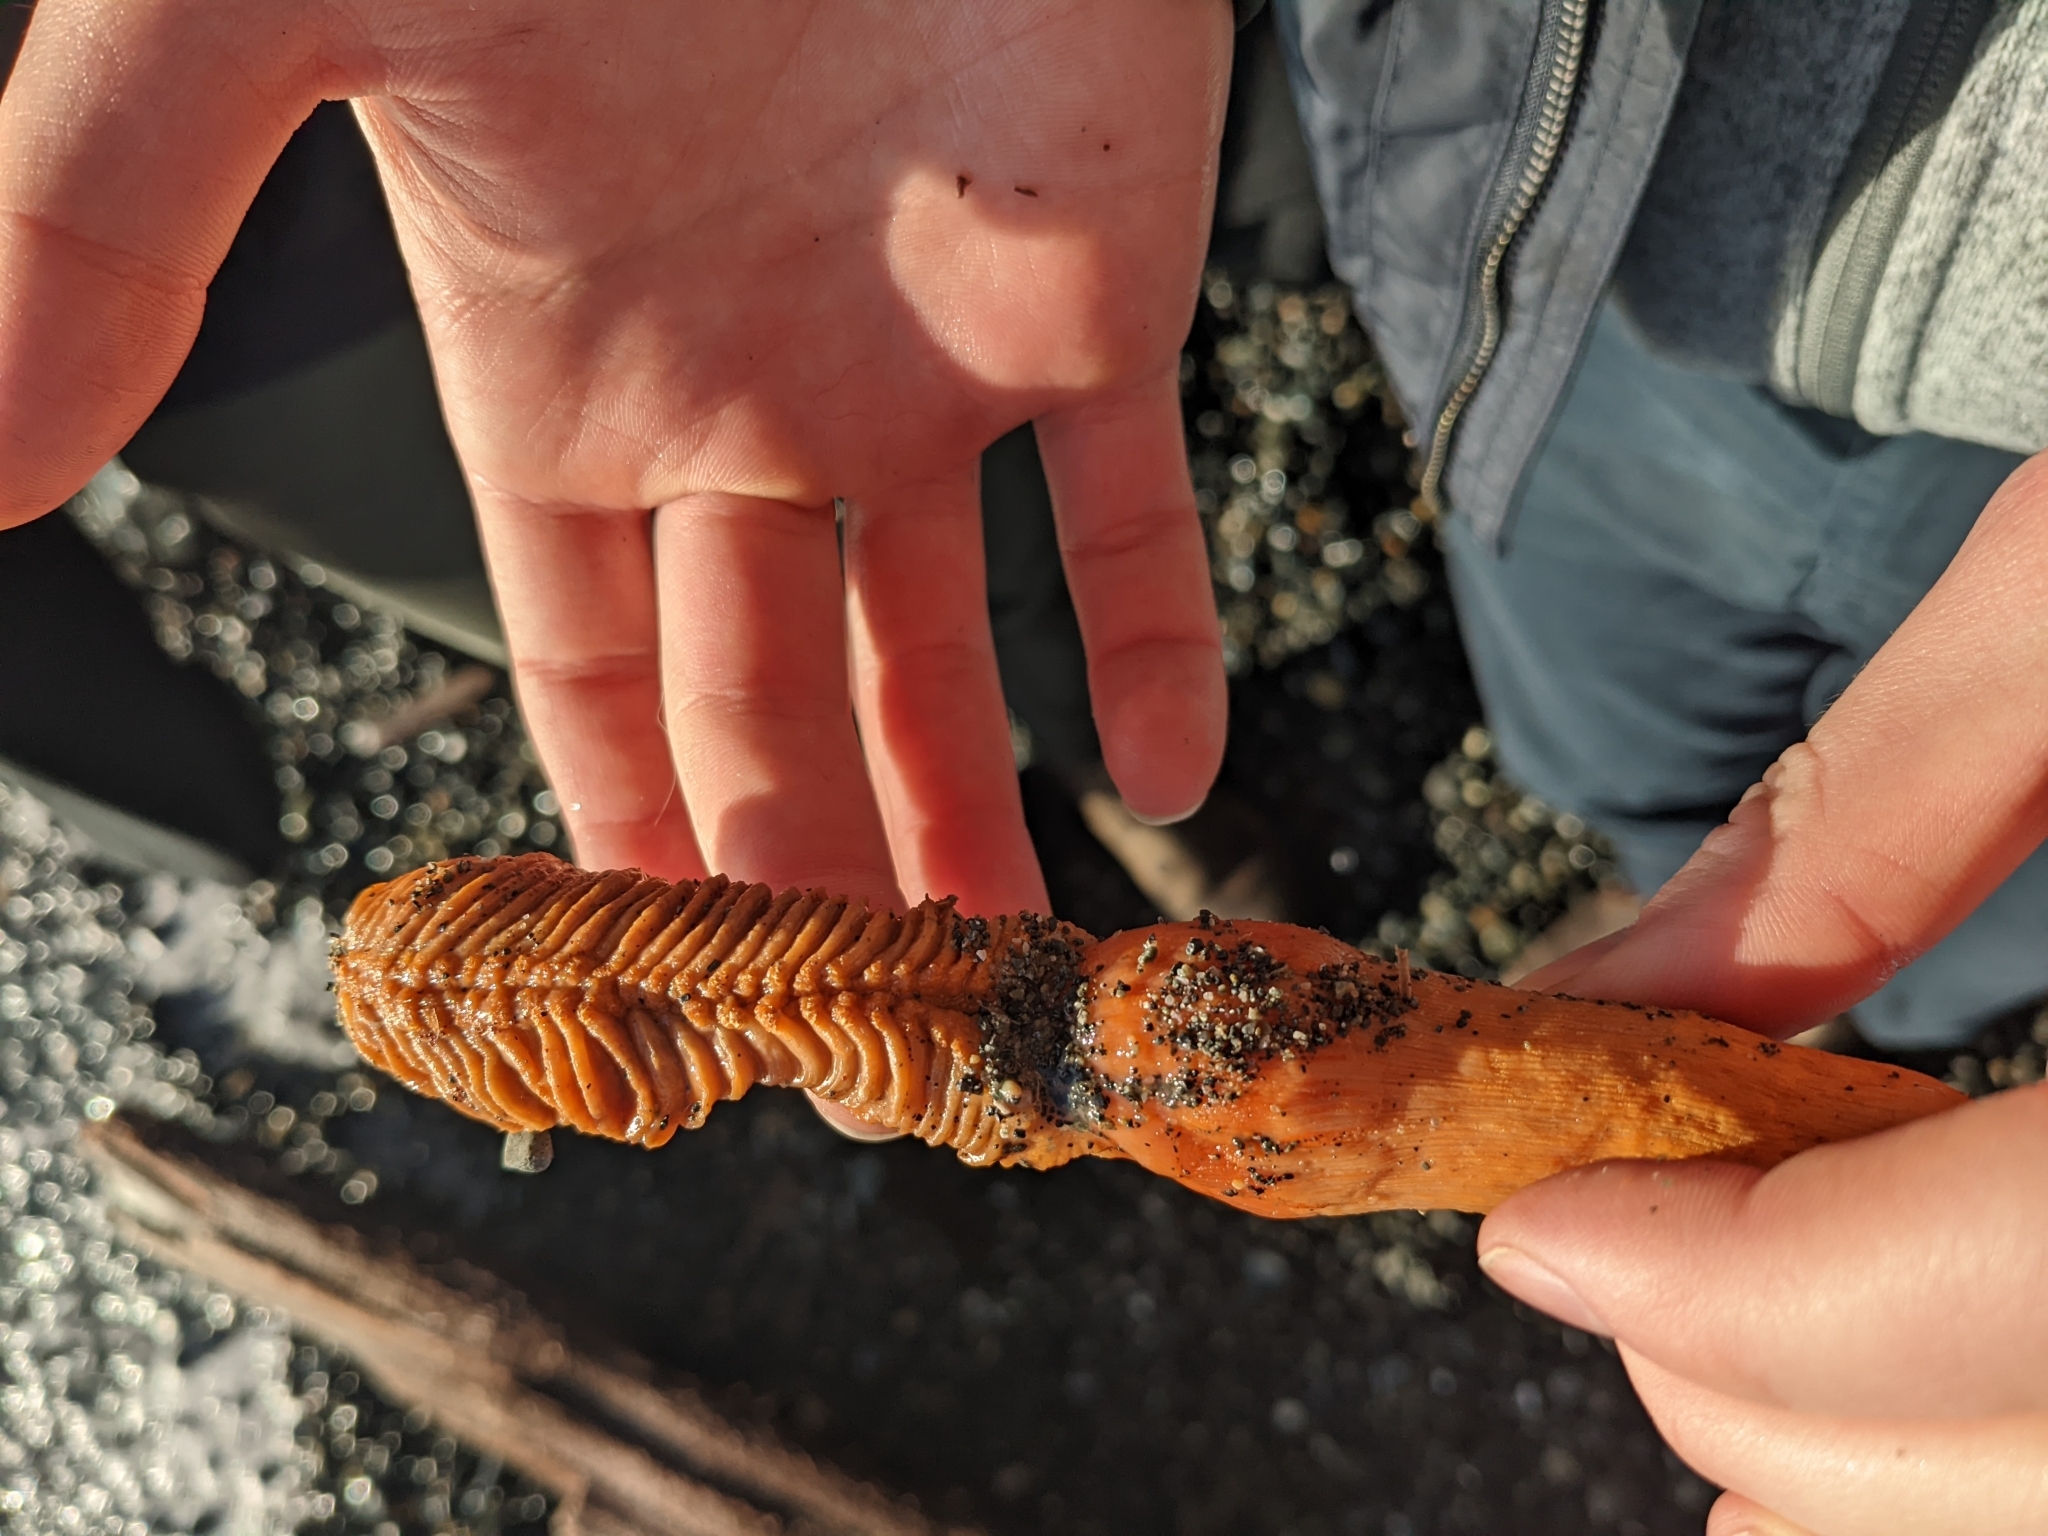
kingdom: Animalia
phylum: Cnidaria
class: Anthozoa
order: Scleralcyonacea
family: Pennatulidae
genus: Ptilosarcus
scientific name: Ptilosarcus gurneyi
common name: Gurney's sea pen
